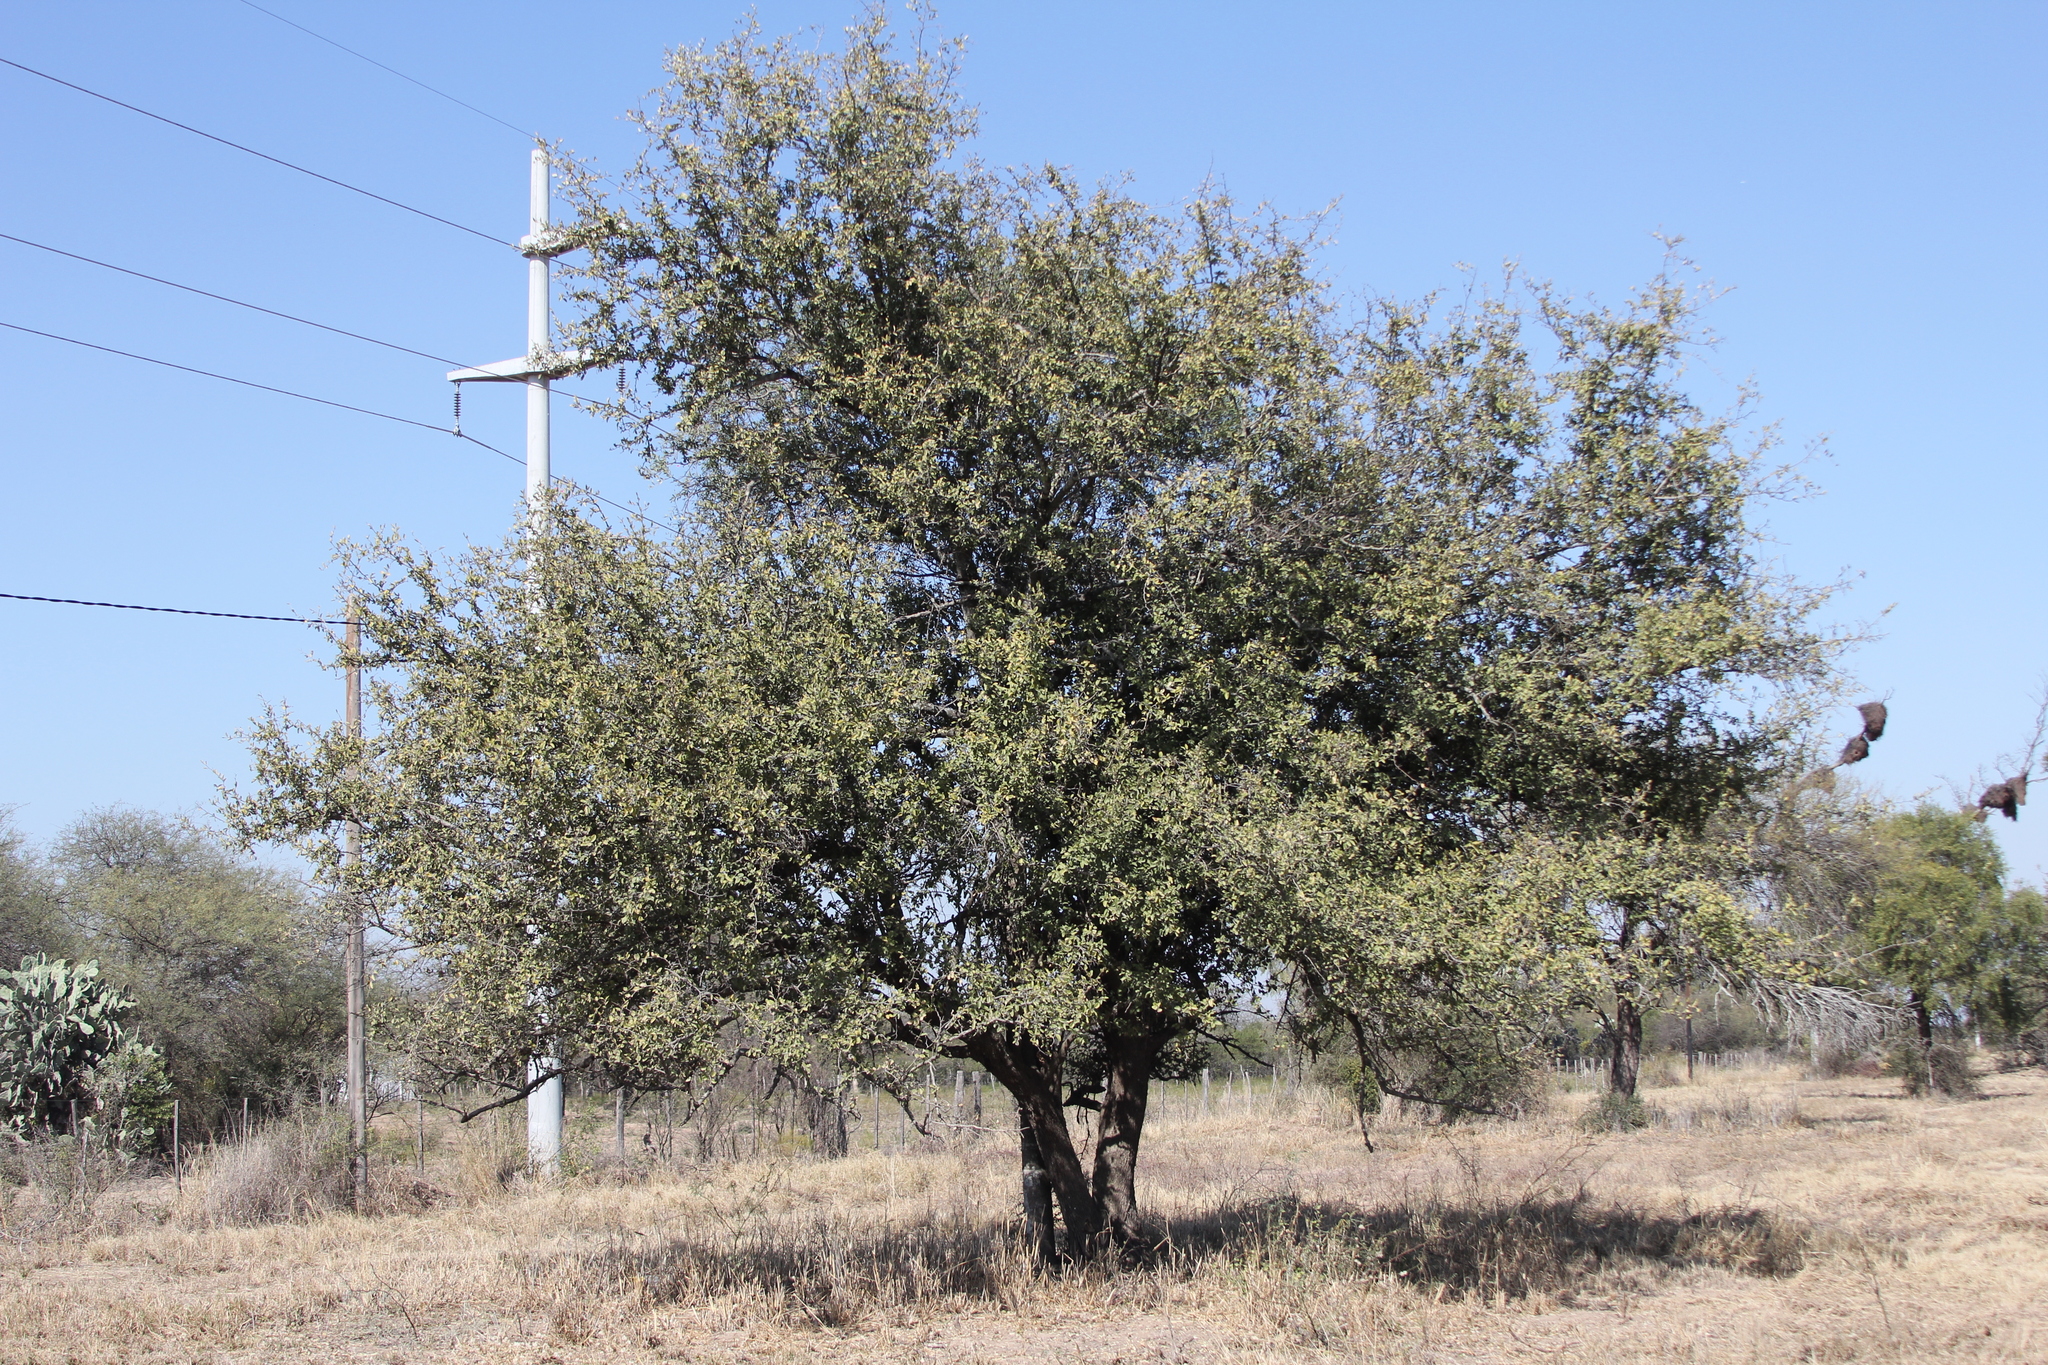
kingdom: Plantae
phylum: Tracheophyta
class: Magnoliopsida
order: Rosales
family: Cannabaceae
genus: Celtis
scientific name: Celtis tala
